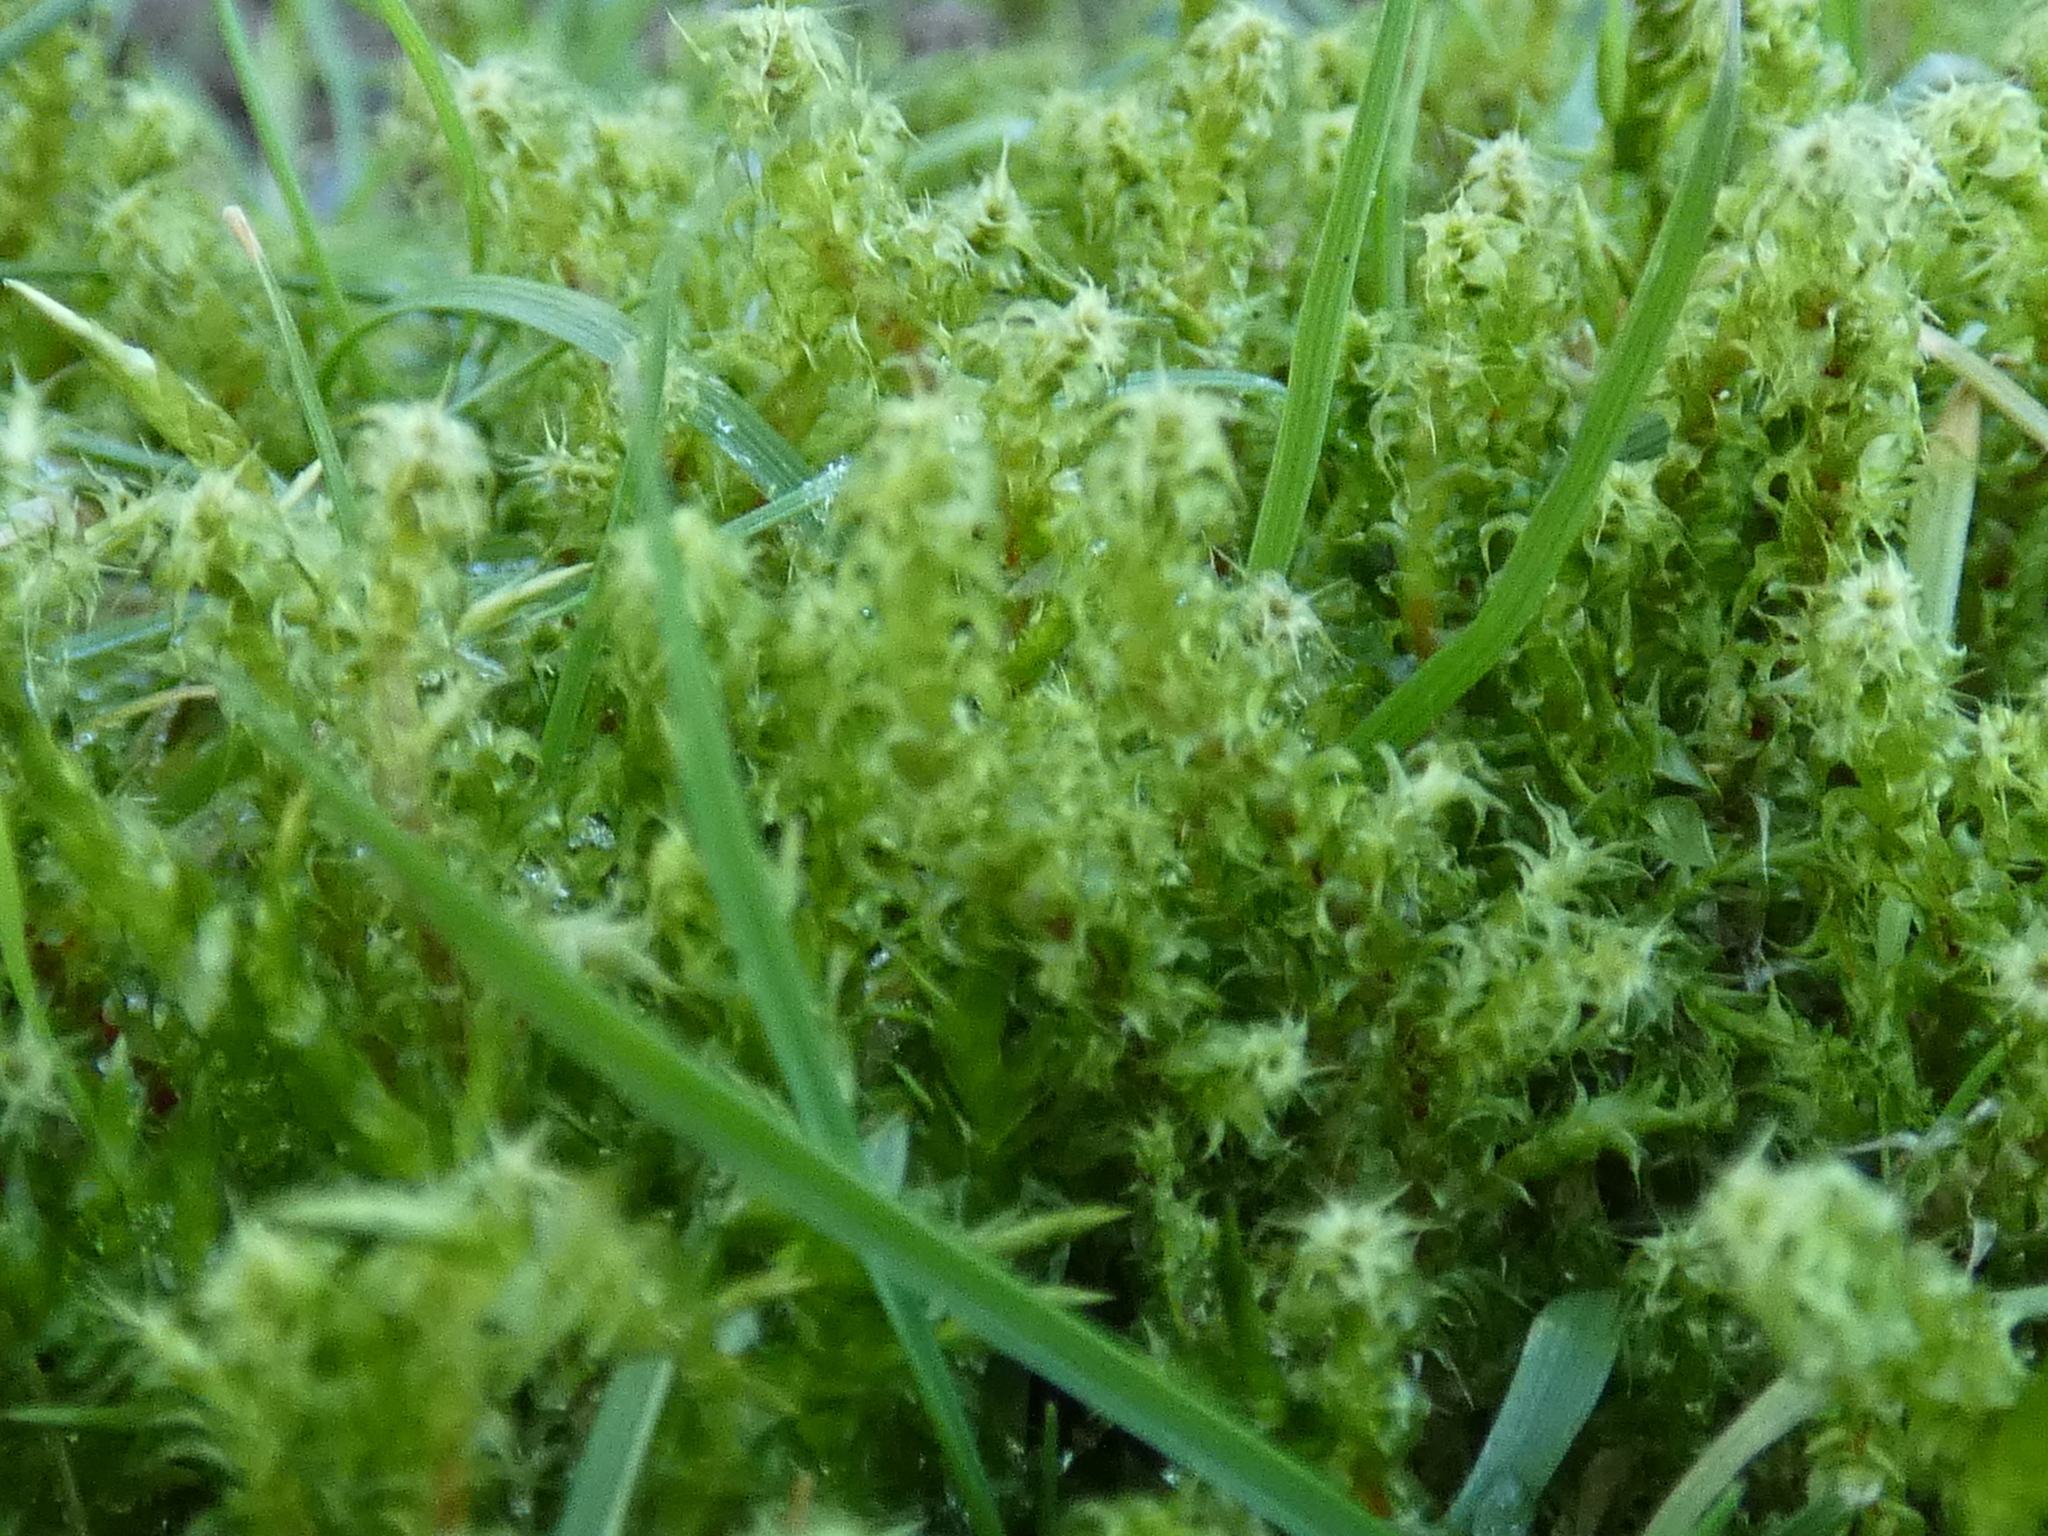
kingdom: Plantae
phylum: Bryophyta
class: Bryopsida
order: Hypnales
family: Hylocomiaceae
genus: Rhytidiadelphus
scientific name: Rhytidiadelphus squarrosus
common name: Springy turf-moss
